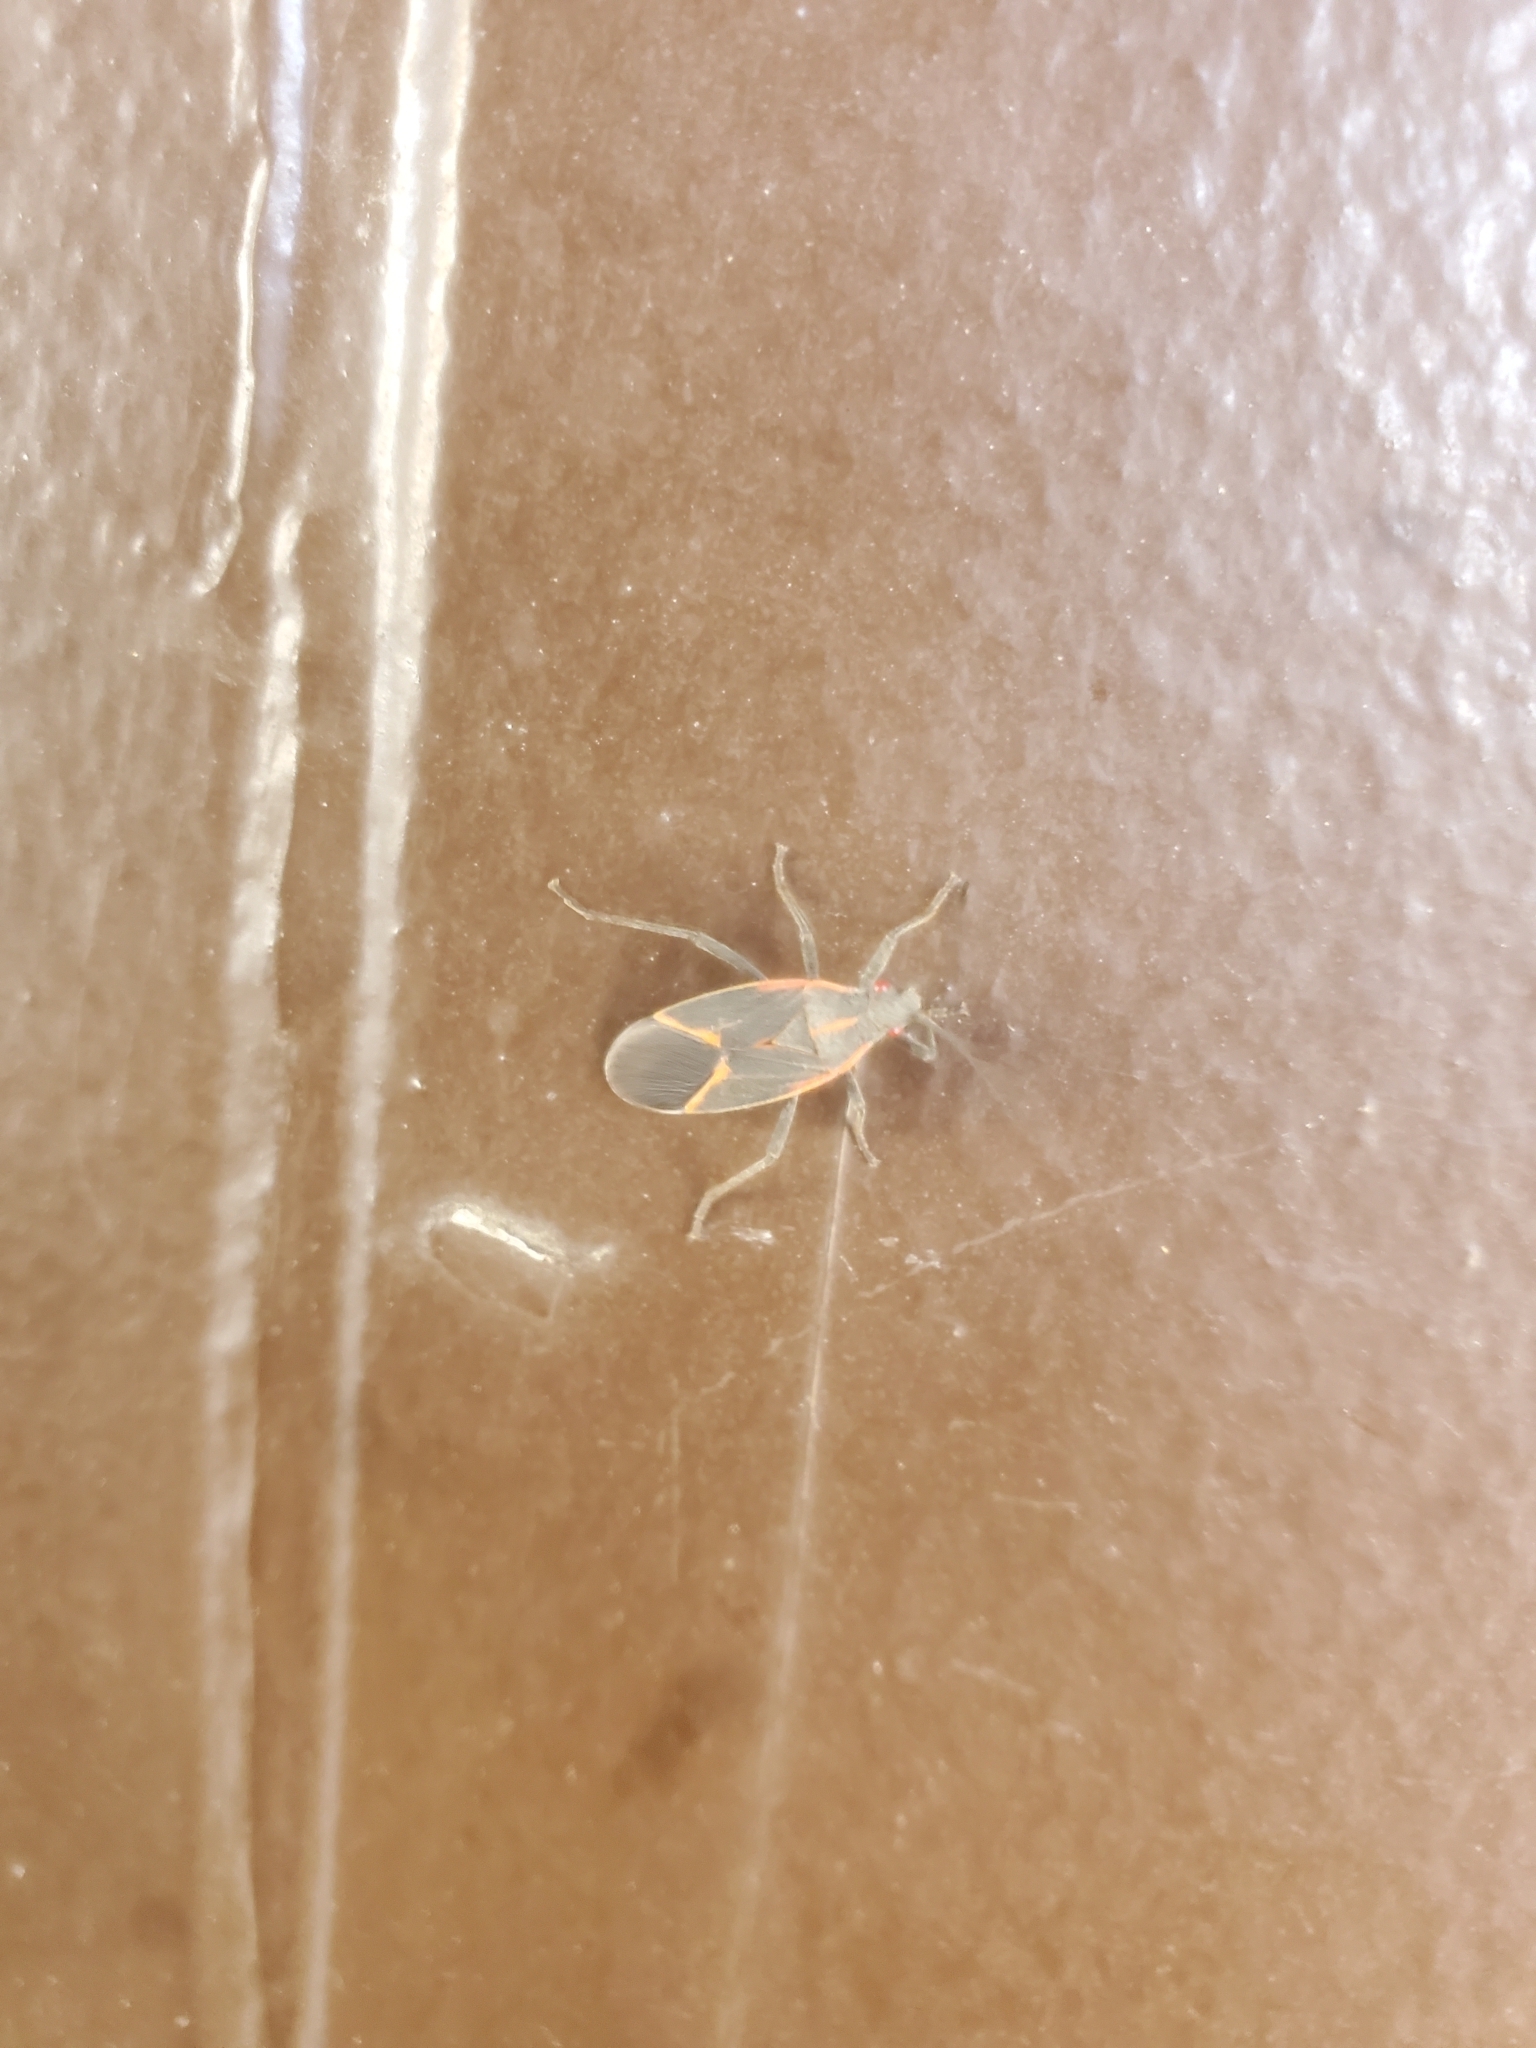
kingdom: Animalia
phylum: Arthropoda
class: Insecta
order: Hemiptera
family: Rhopalidae
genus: Boisea
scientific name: Boisea trivittata
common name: Boxelder bug
